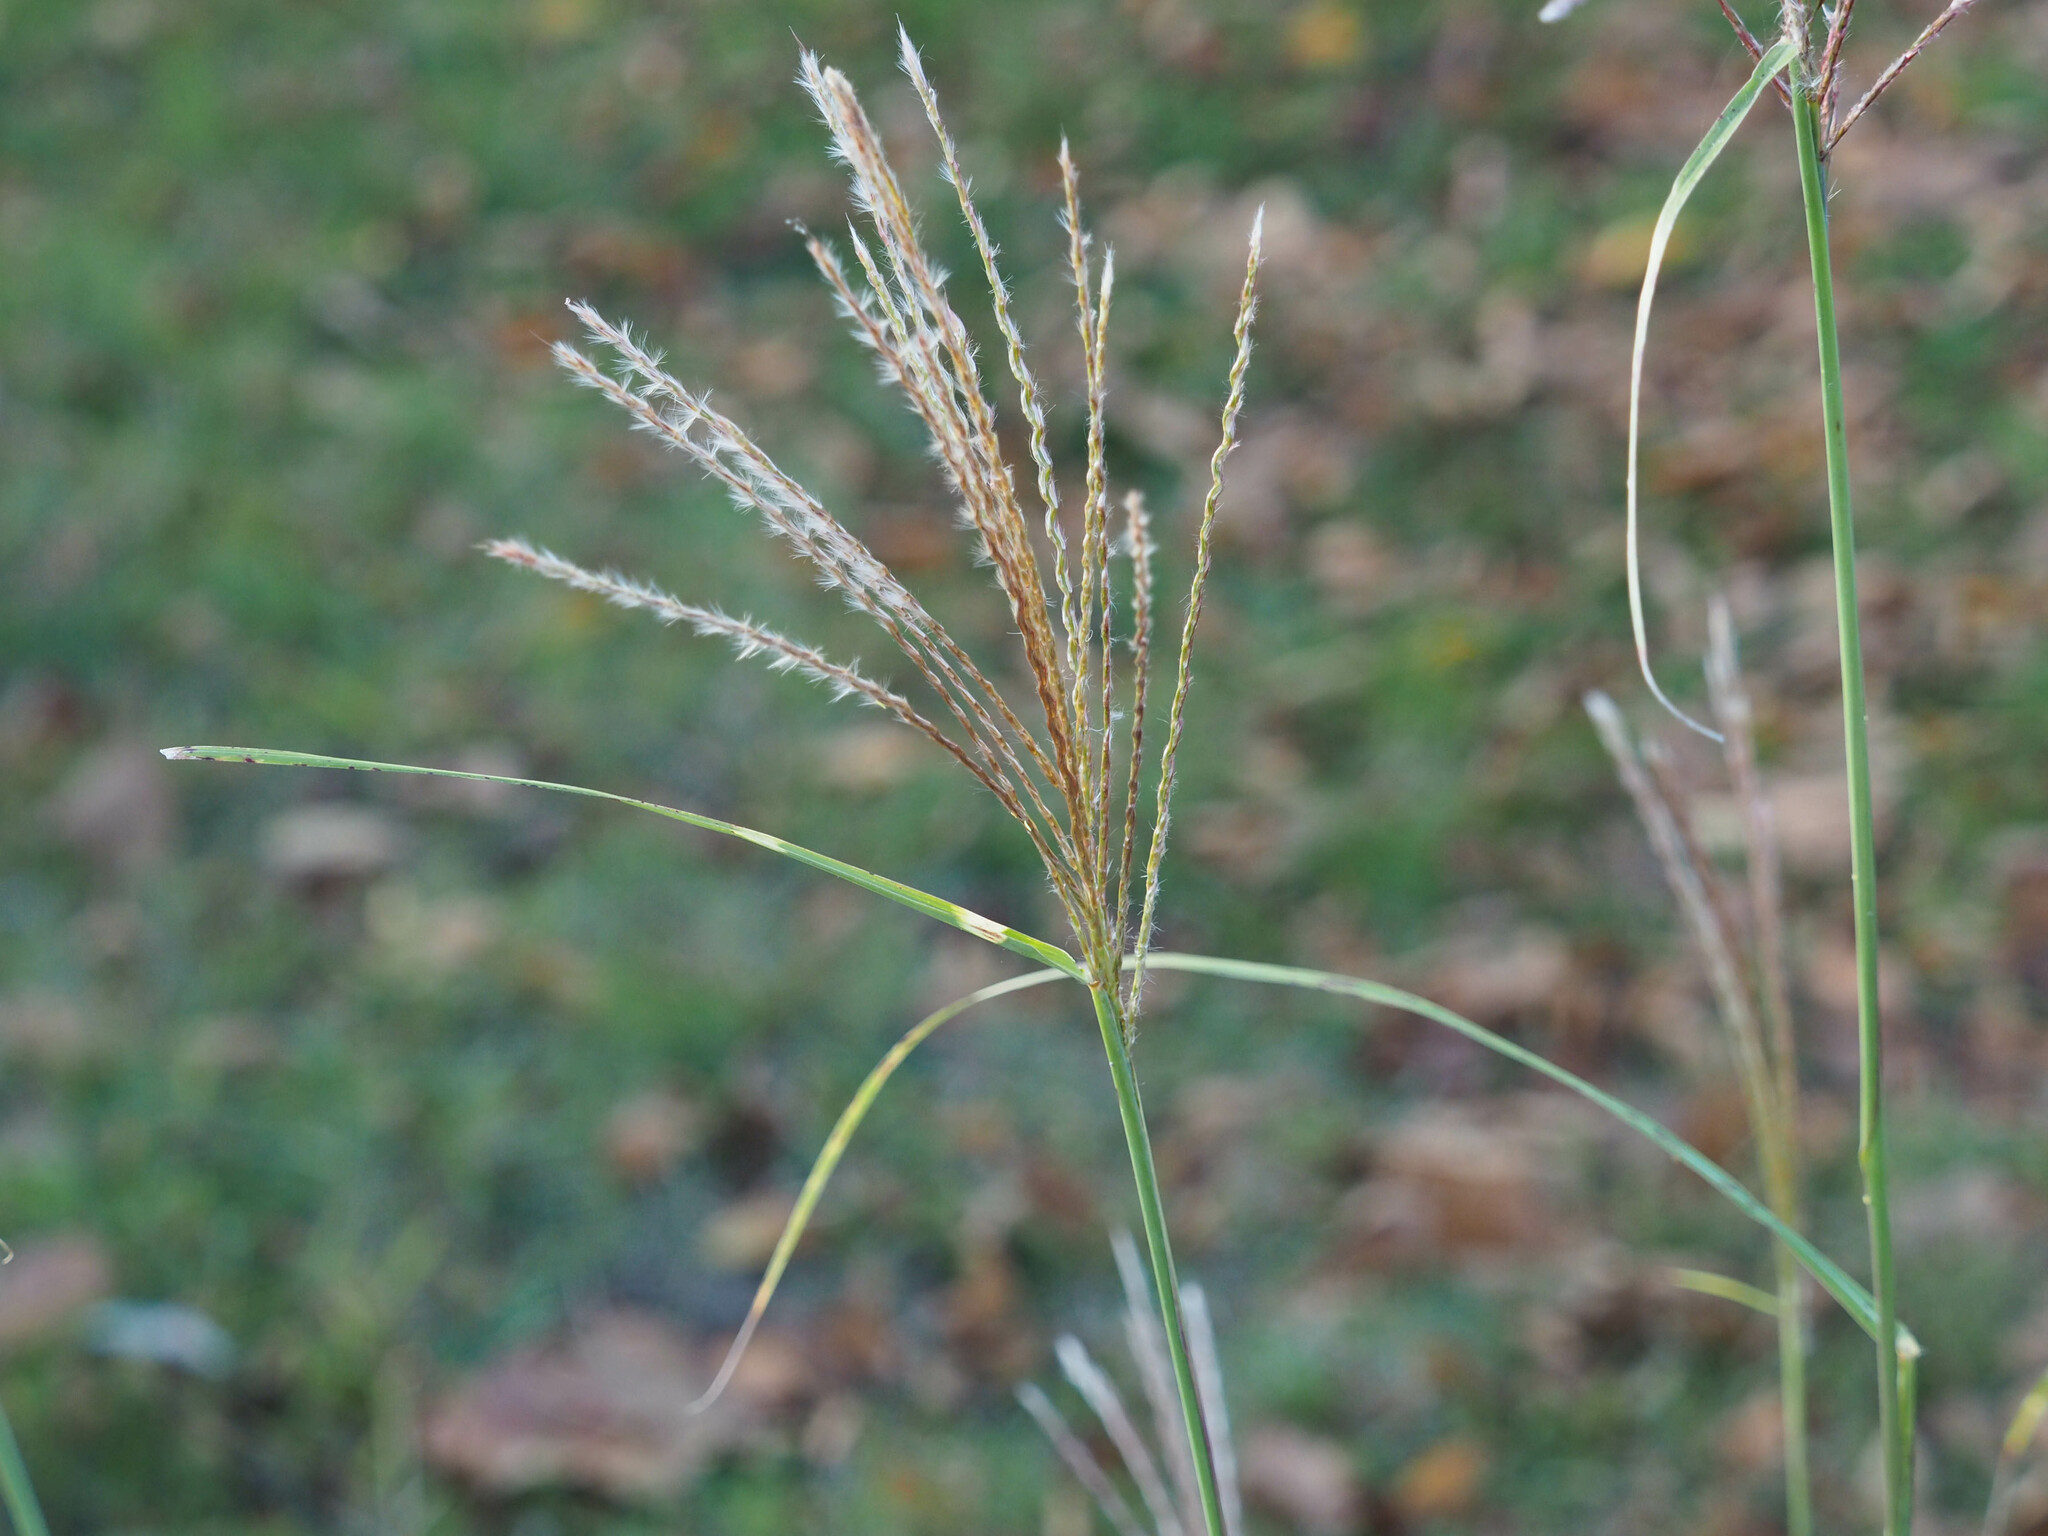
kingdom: Plantae
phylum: Tracheophyta
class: Liliopsida
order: Poales
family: Poaceae
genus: Miscanthus
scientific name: Miscanthus sinensis
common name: Chinese silvergrass
